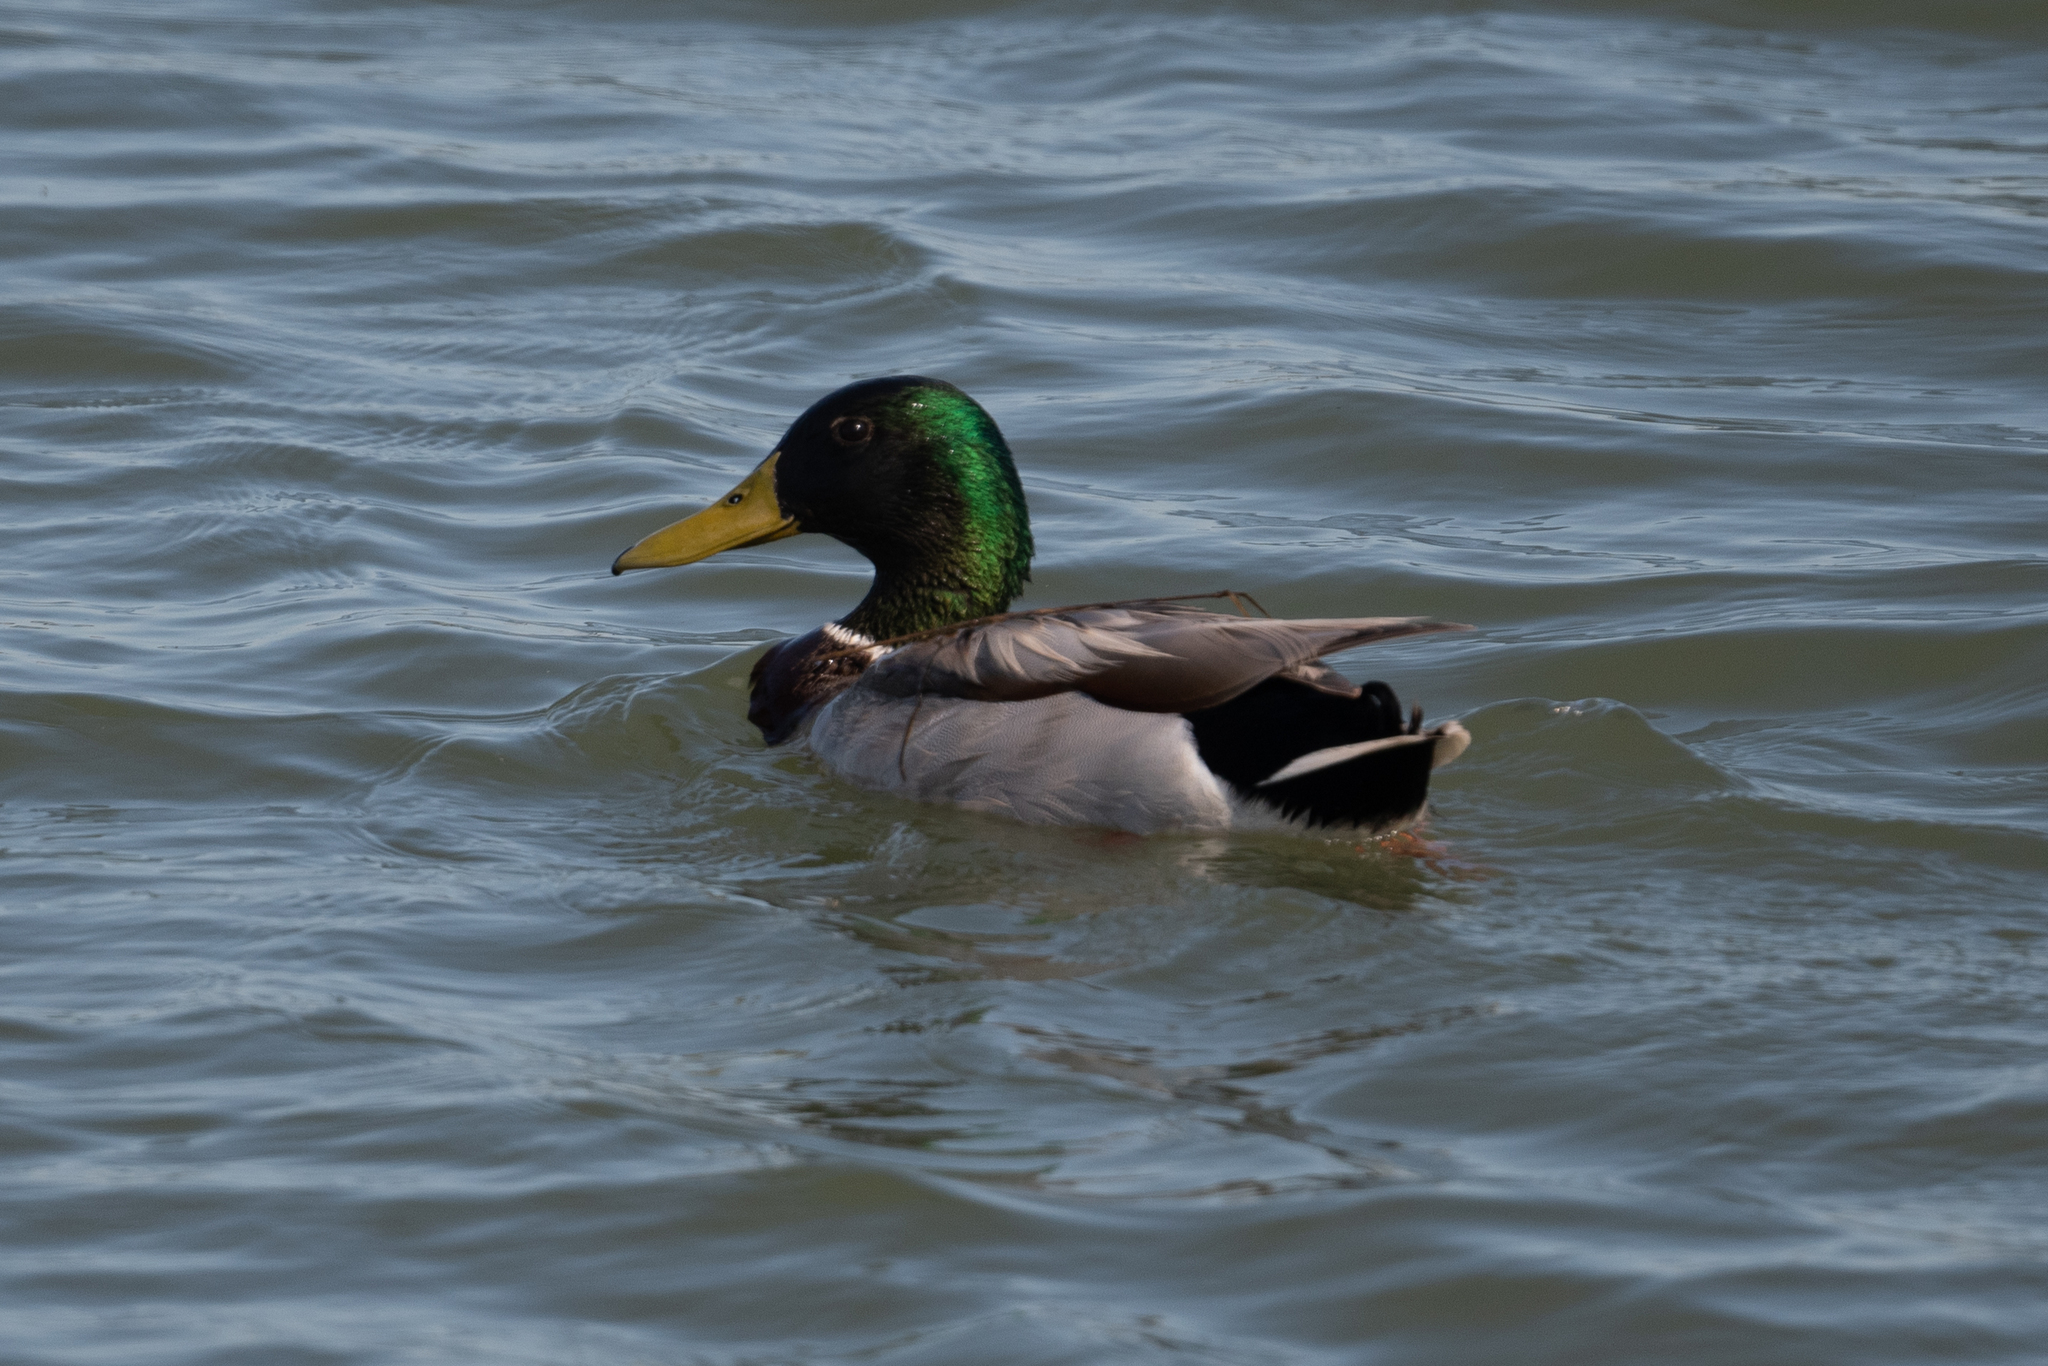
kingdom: Animalia
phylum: Chordata
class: Aves
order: Anseriformes
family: Anatidae
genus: Anas
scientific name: Anas platyrhynchos
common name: Mallard
